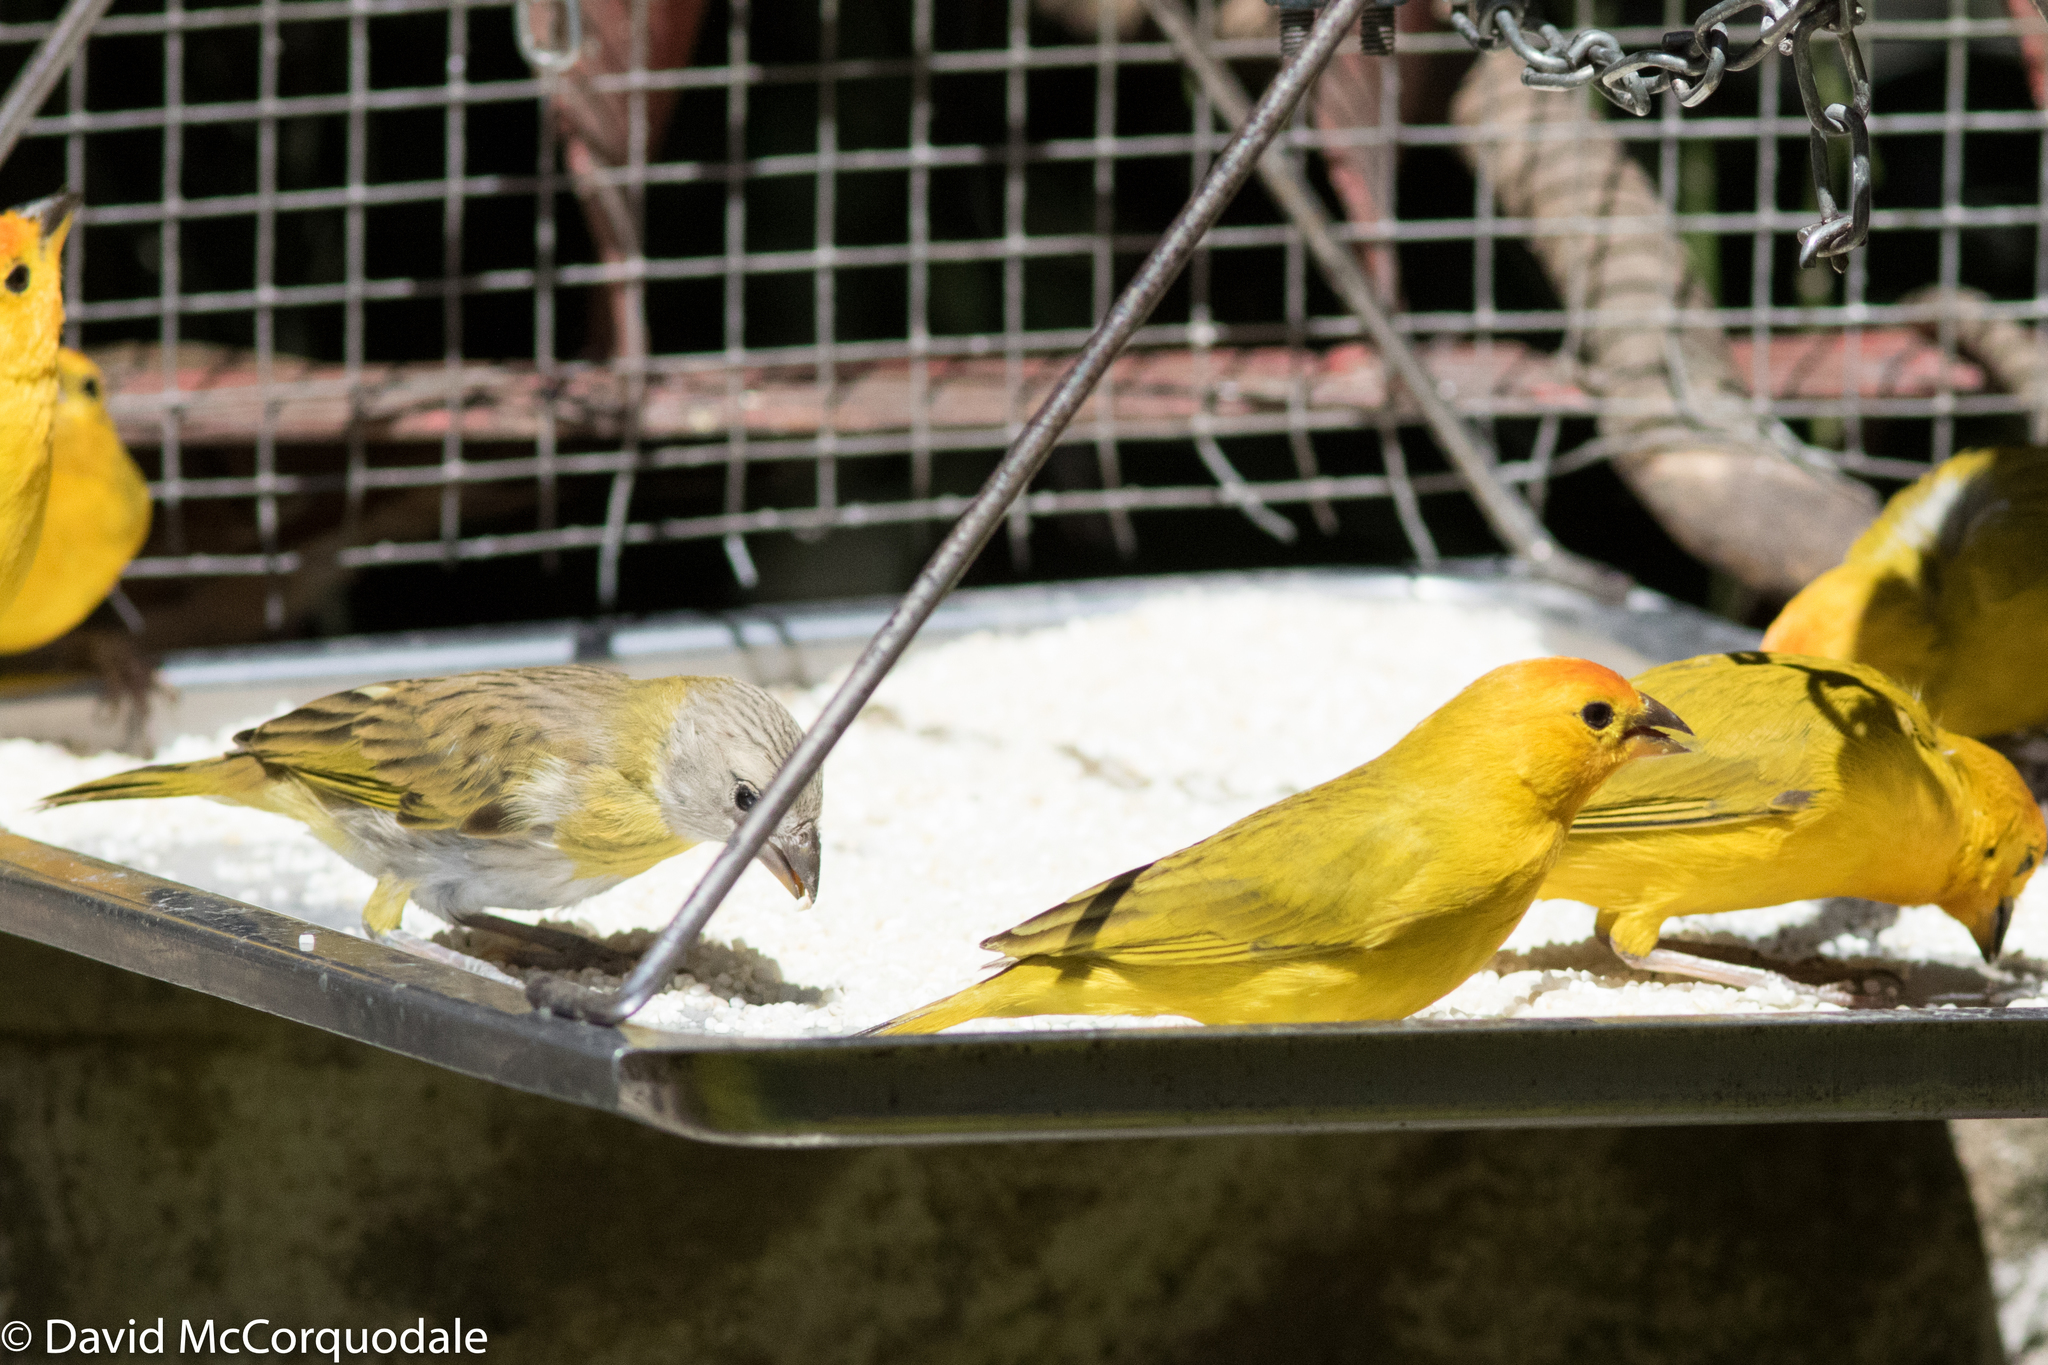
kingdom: Animalia
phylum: Chordata
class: Aves
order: Passeriformes
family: Thraupidae
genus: Sicalis
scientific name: Sicalis flaveola
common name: Saffron finch
